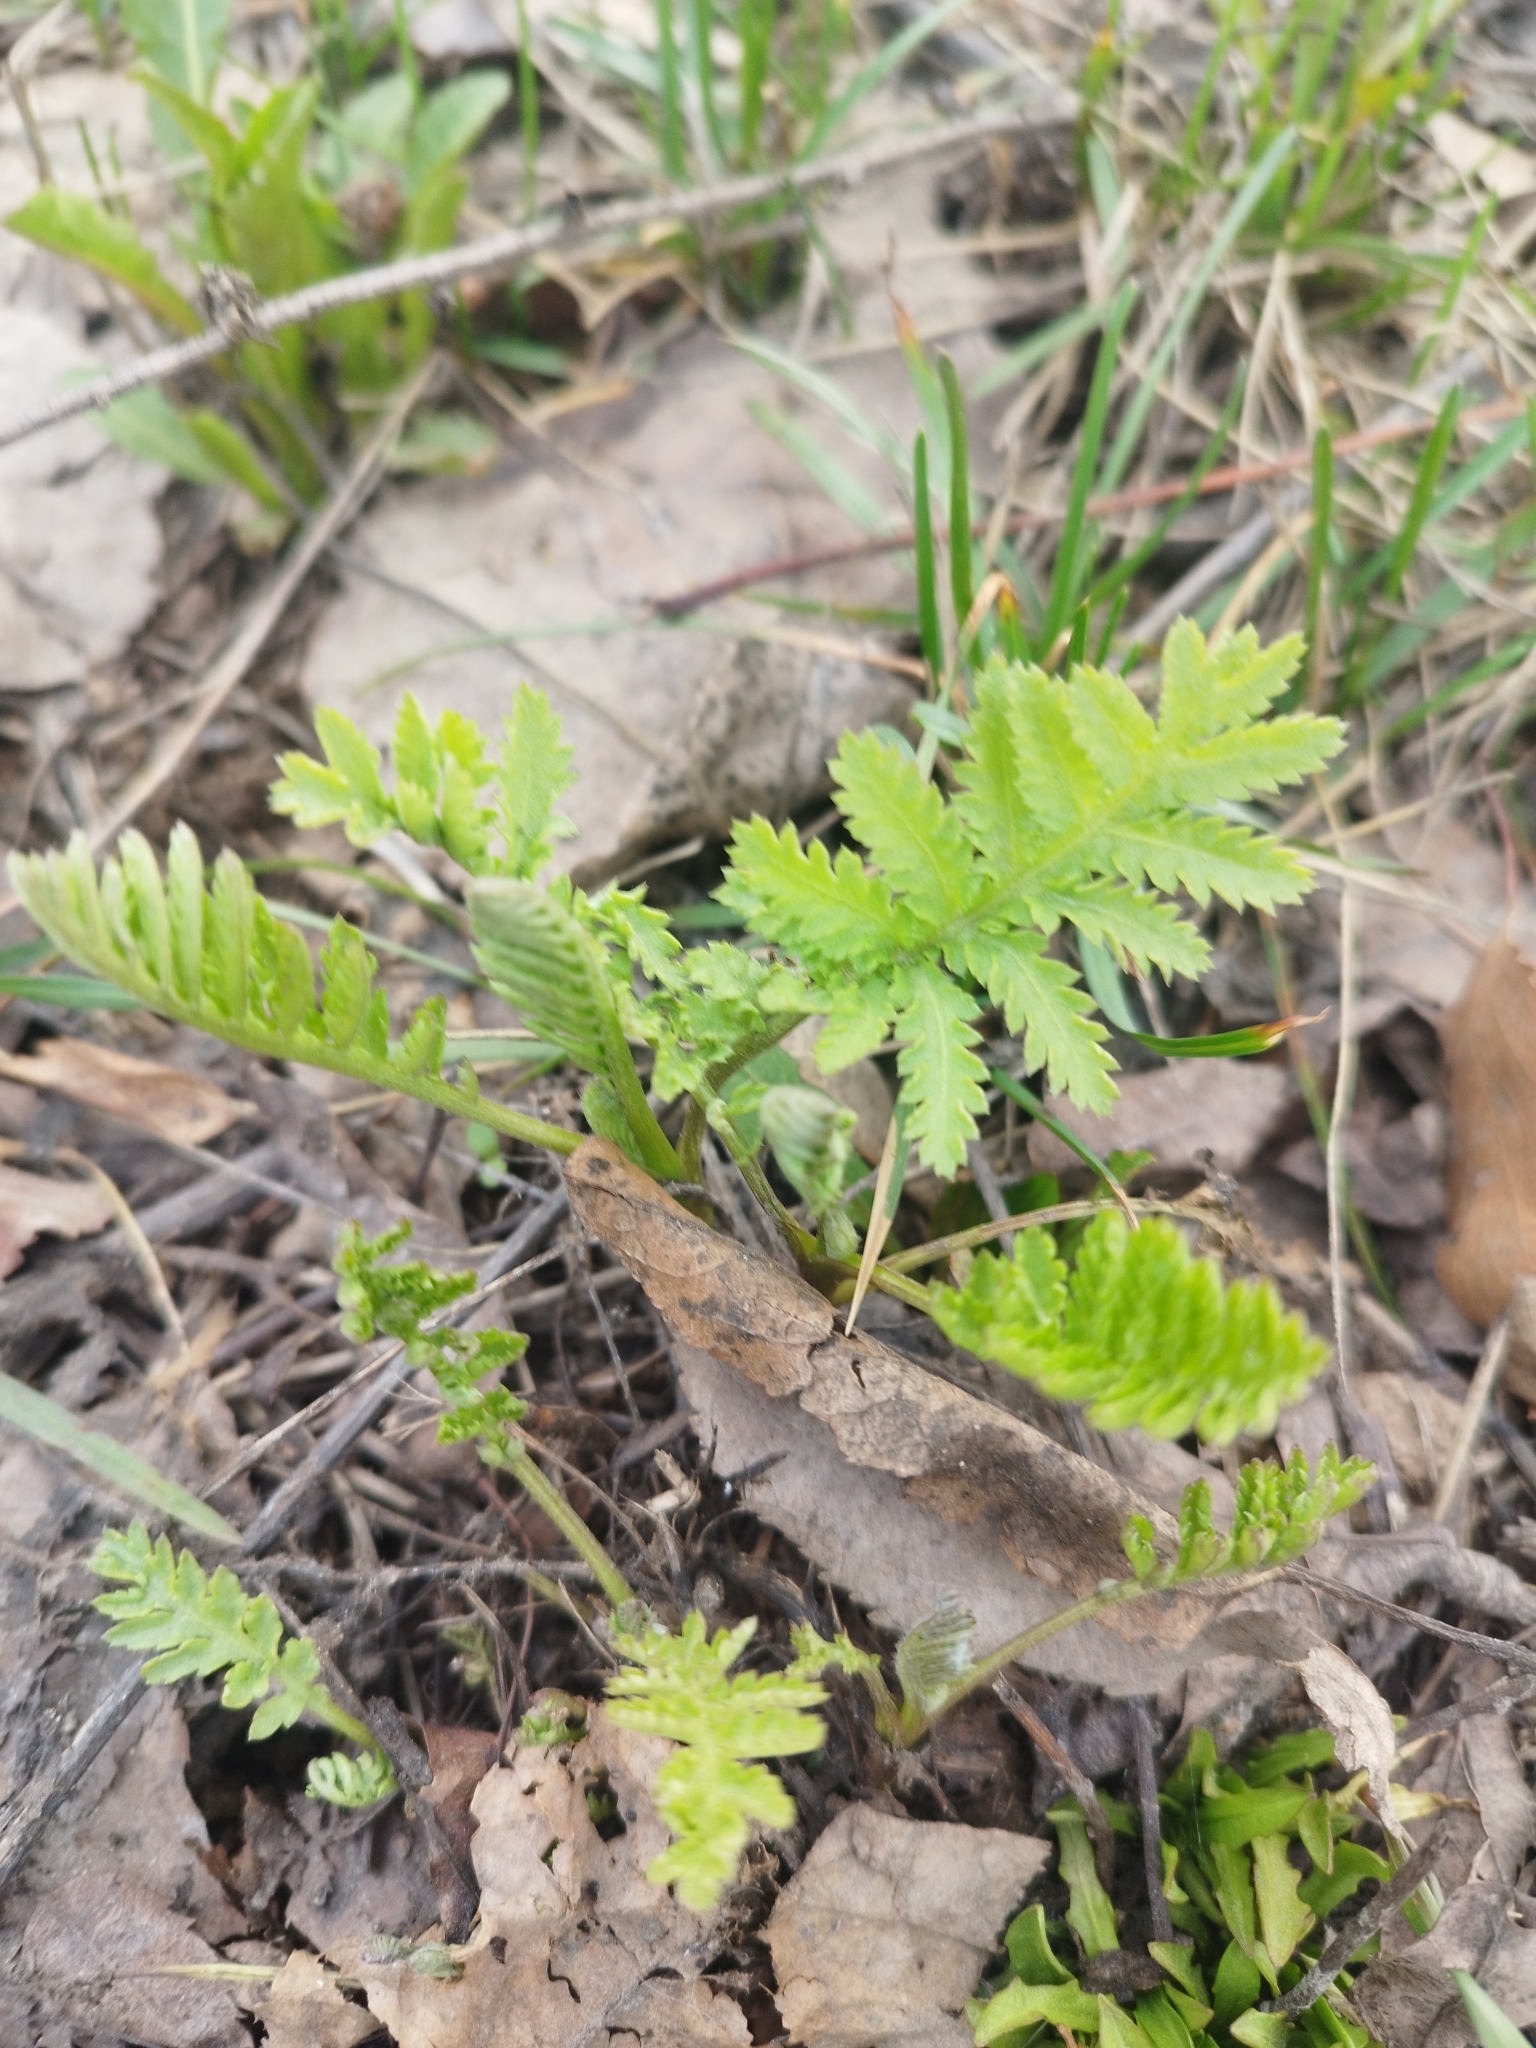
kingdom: Plantae
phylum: Tracheophyta
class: Magnoliopsida
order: Asterales
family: Asteraceae
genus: Tanacetum
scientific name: Tanacetum vulgare
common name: Common tansy
